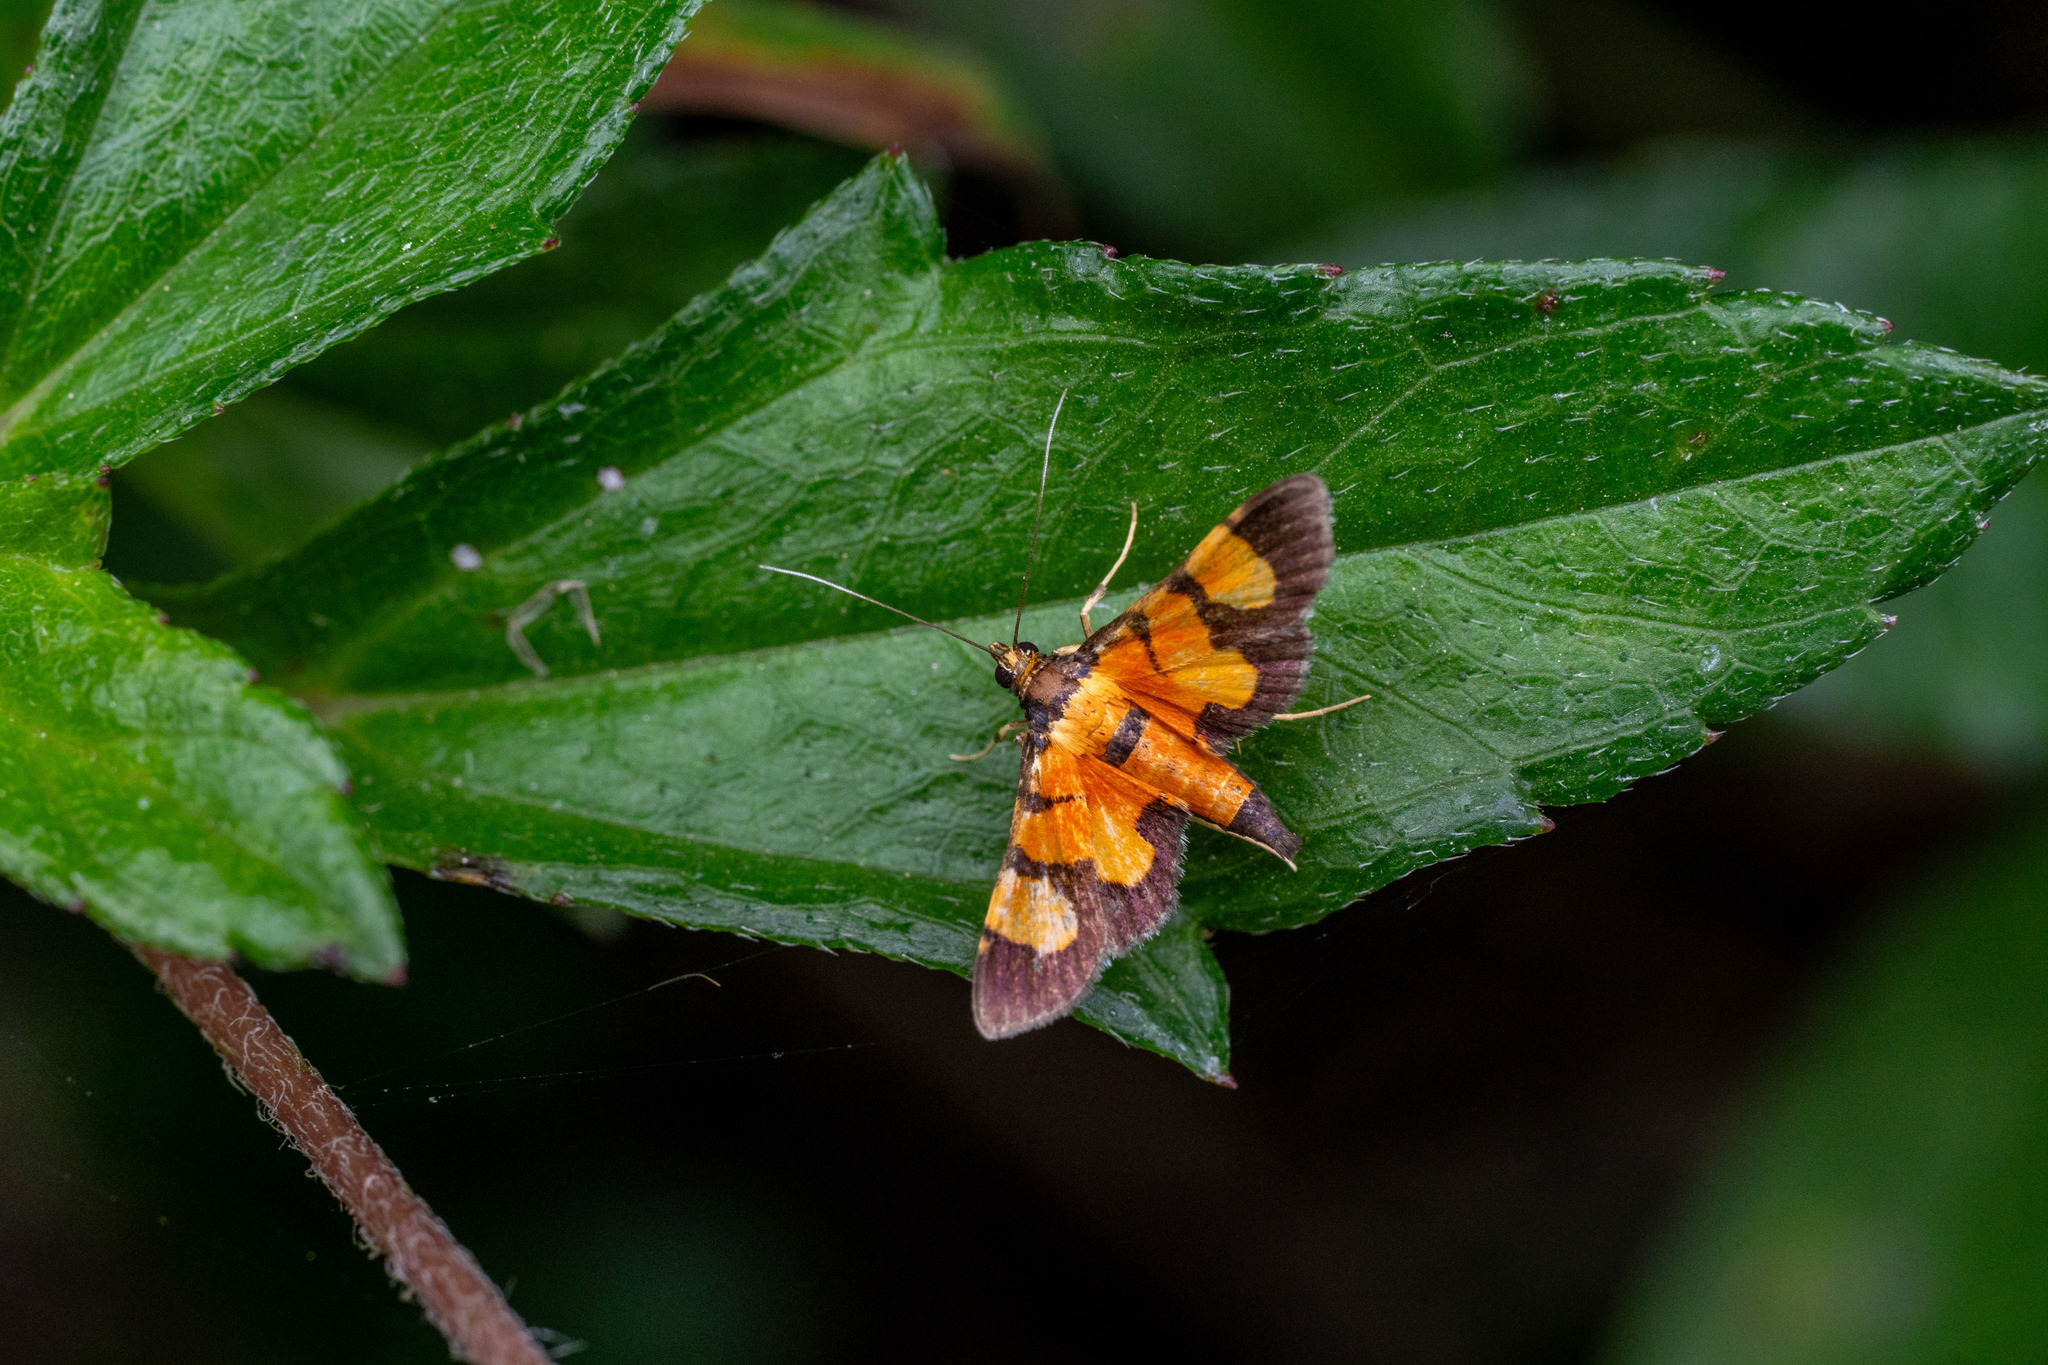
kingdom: Animalia
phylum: Arthropoda
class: Insecta
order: Lepidoptera
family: Crambidae
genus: Aethaloessa
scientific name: Aethaloessa calidalis
